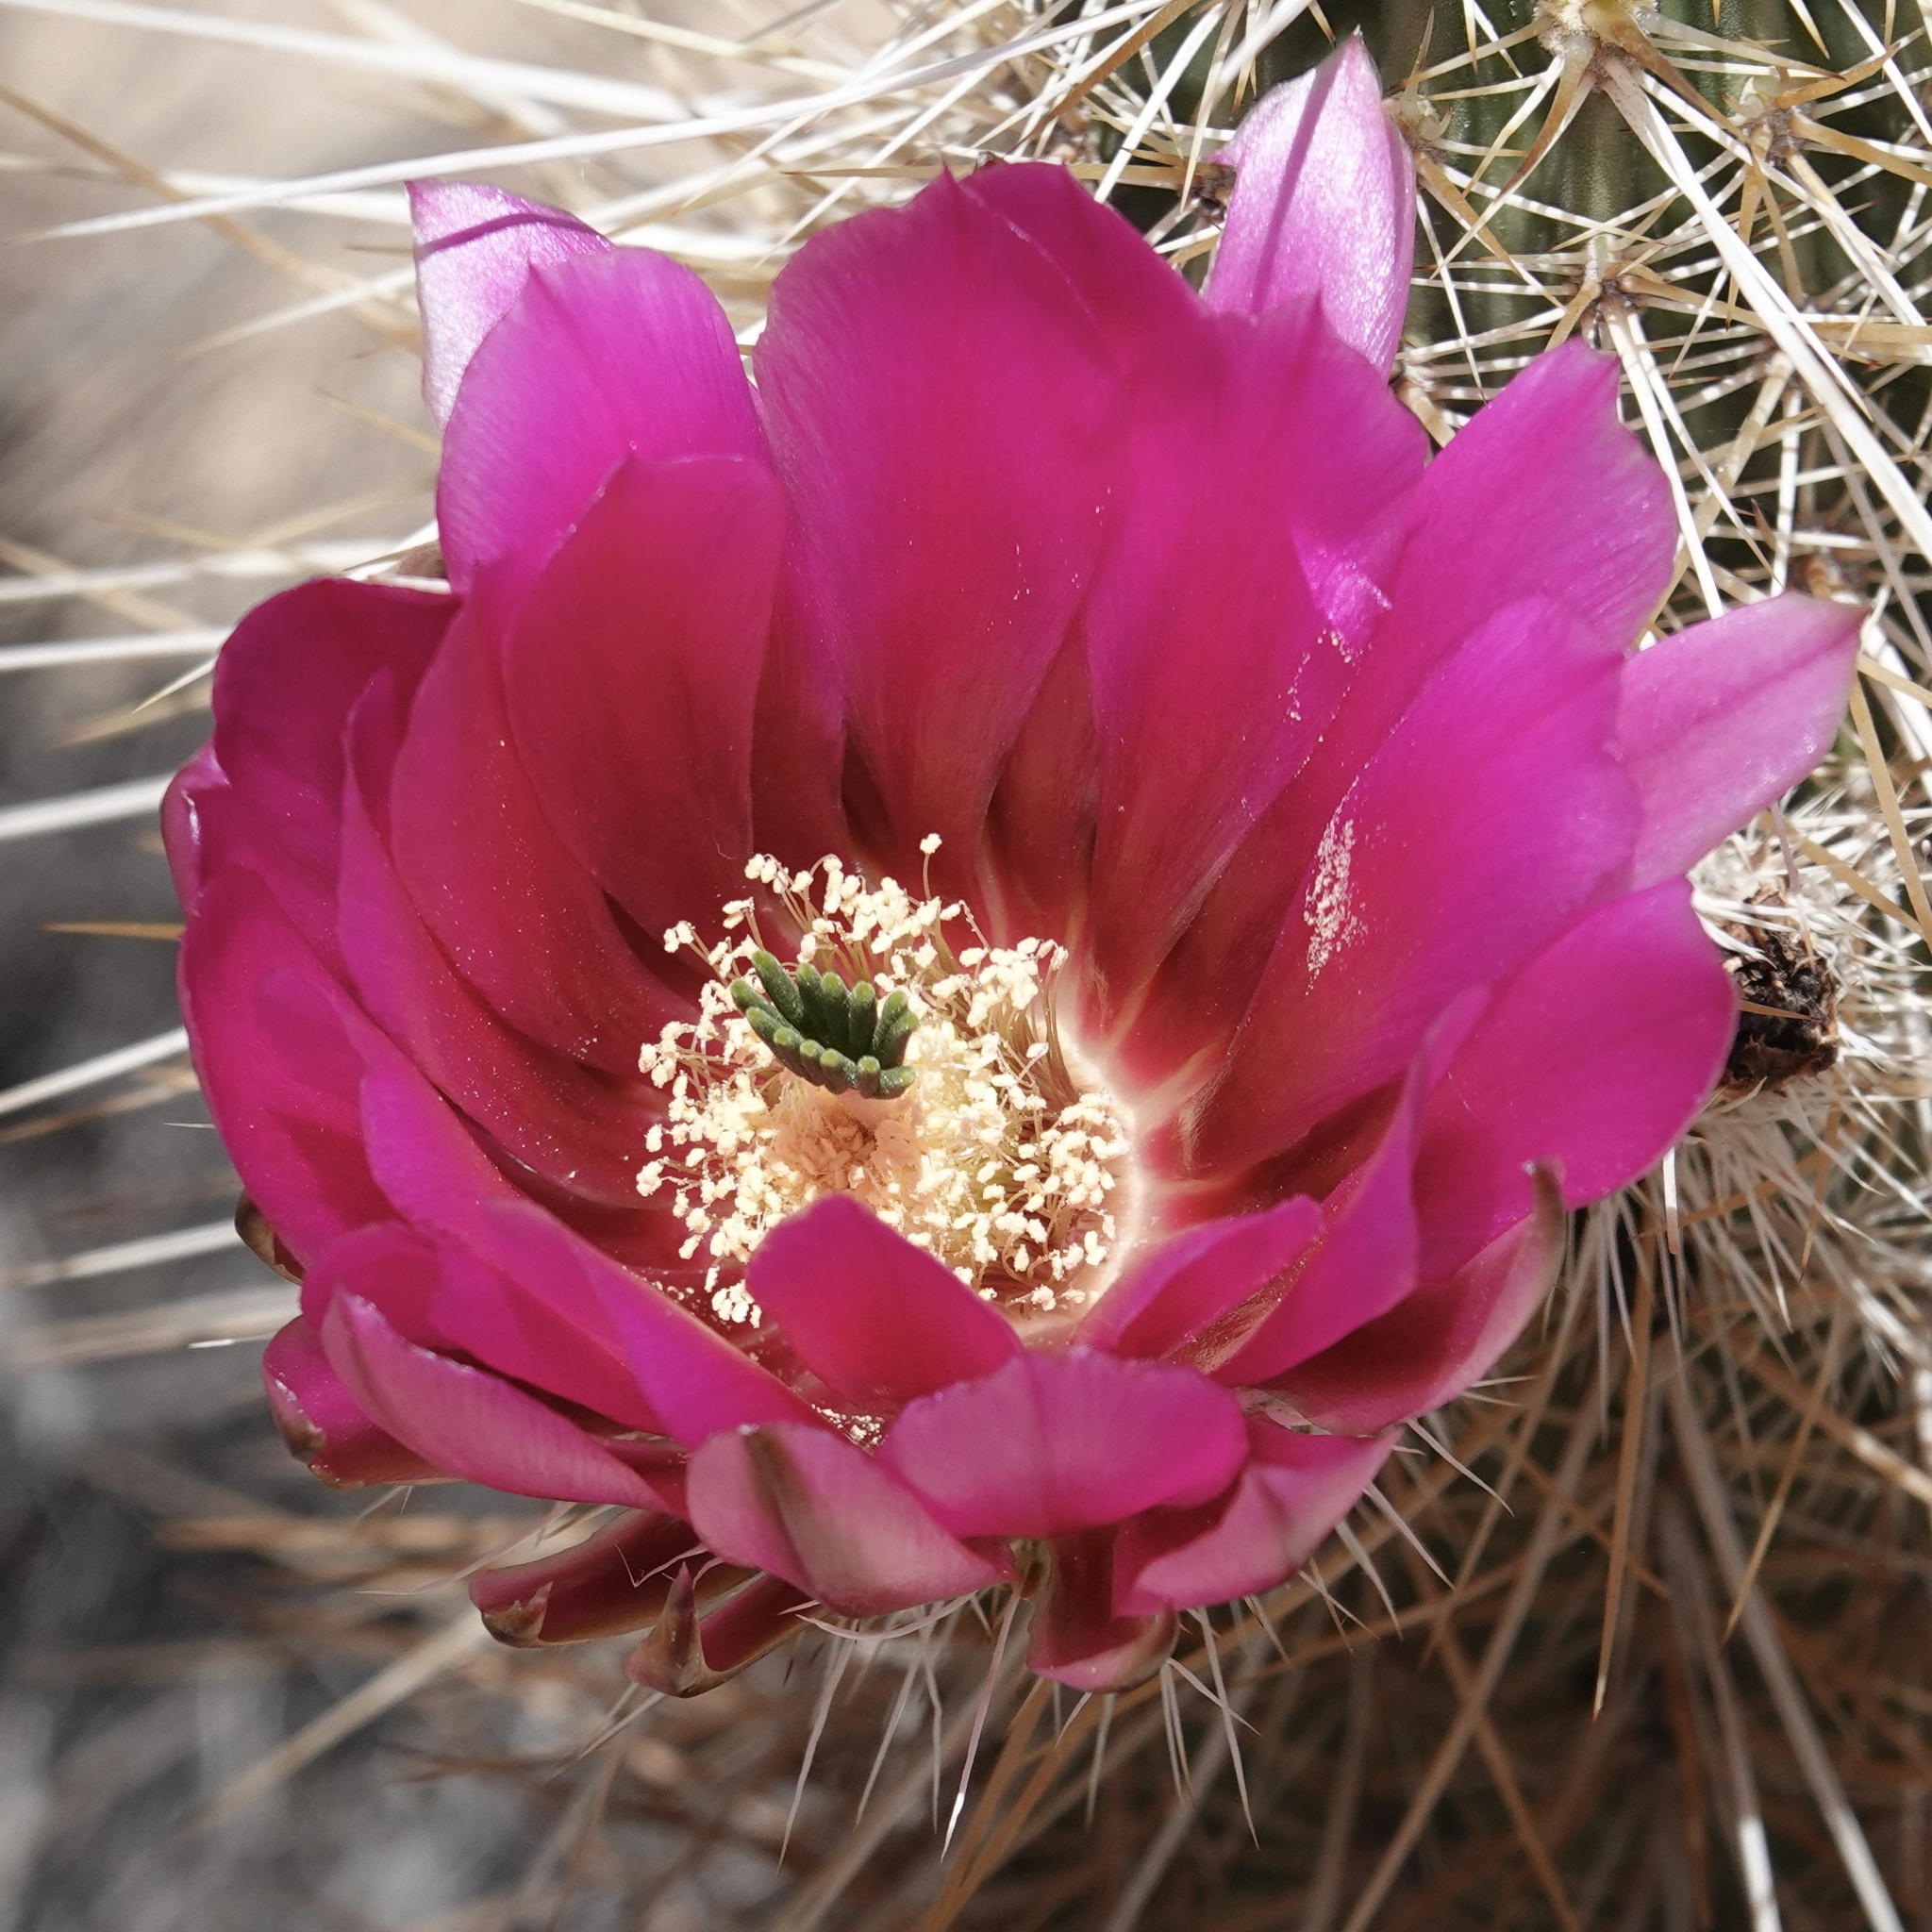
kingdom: Plantae
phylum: Tracheophyta
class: Magnoliopsida
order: Caryophyllales
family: Cactaceae
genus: Echinocereus
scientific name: Echinocereus engelmannii
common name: Engelmann's hedgehog cactus
